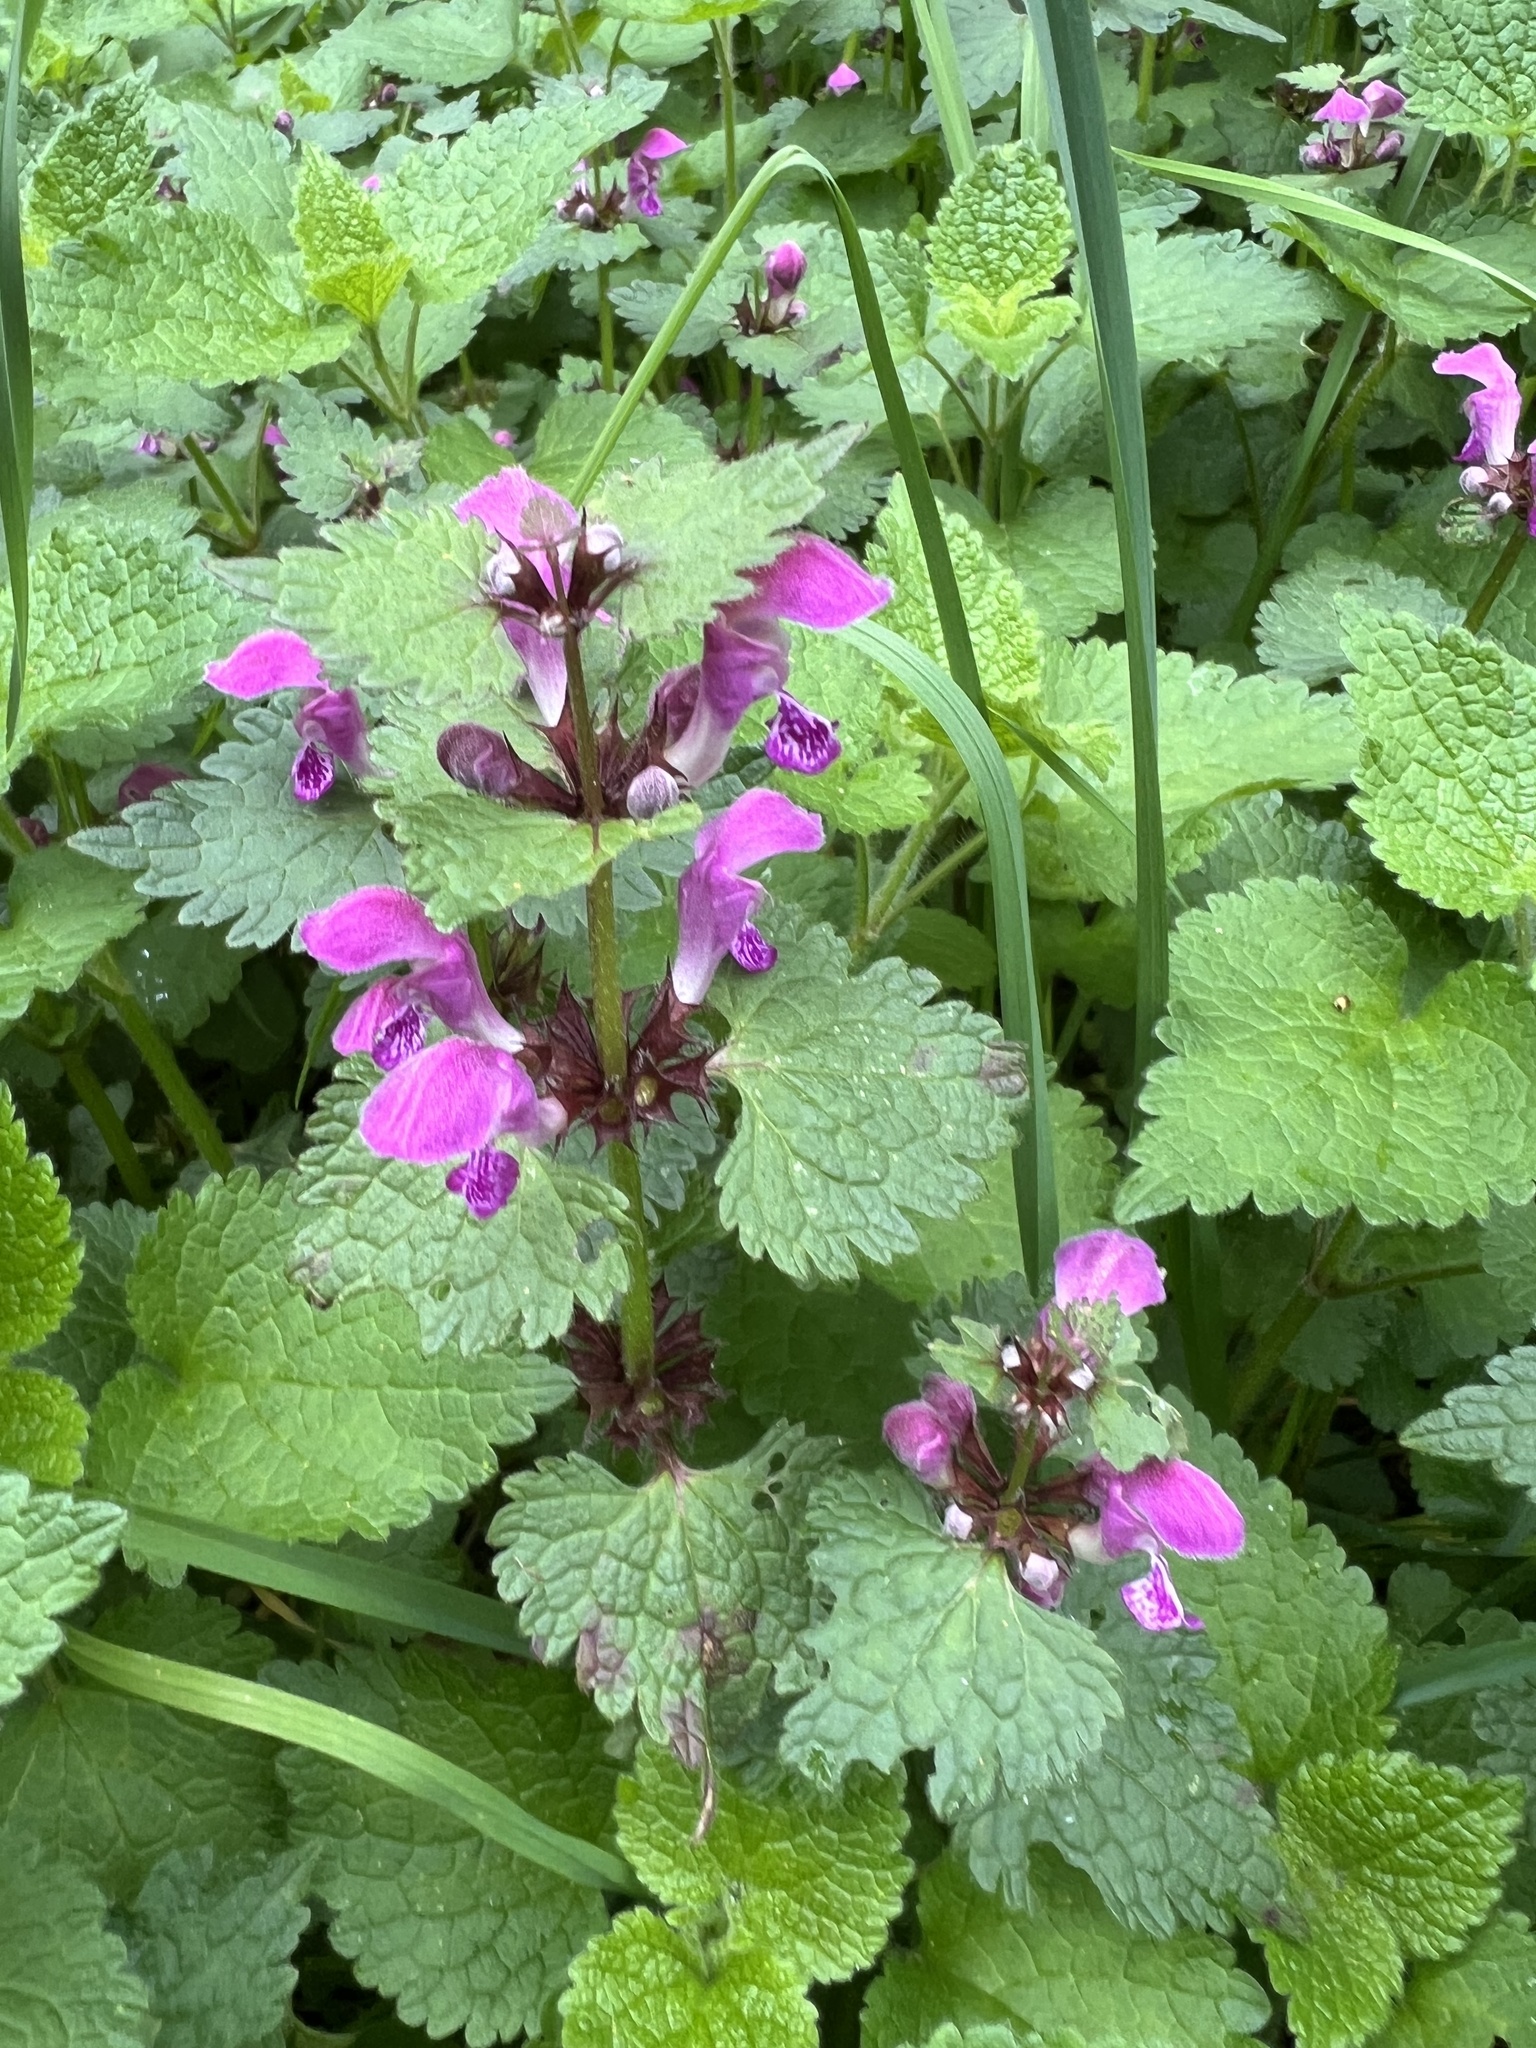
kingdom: Plantae
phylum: Tracheophyta
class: Magnoliopsida
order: Lamiales
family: Lamiaceae
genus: Lamium
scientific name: Lamium maculatum
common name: Spotted dead-nettle
